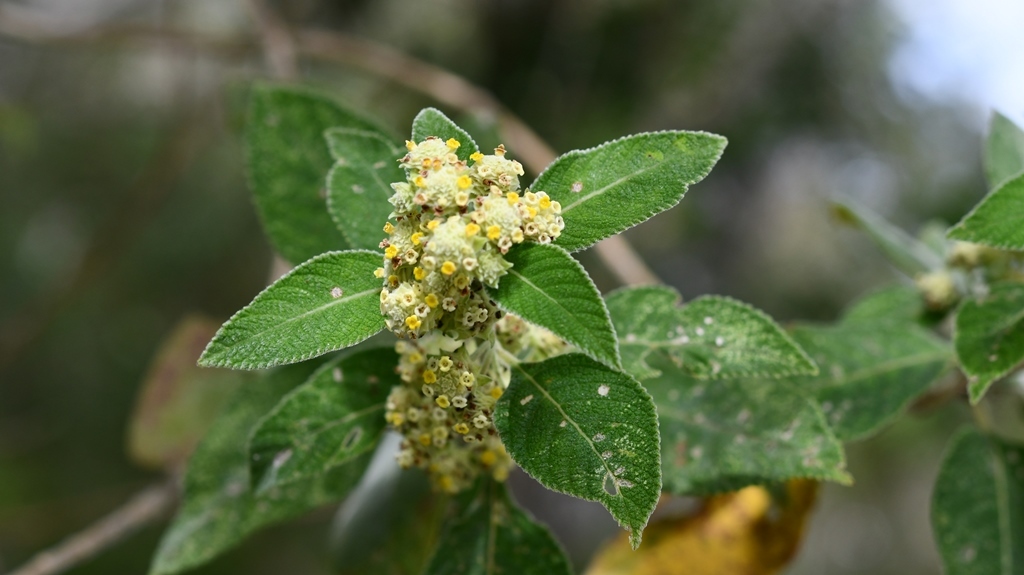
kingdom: Plantae
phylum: Tracheophyta
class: Magnoliopsida
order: Lamiales
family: Verbenaceae
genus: Phyla
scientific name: Phyla lanceolata
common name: Northern fogfruit
